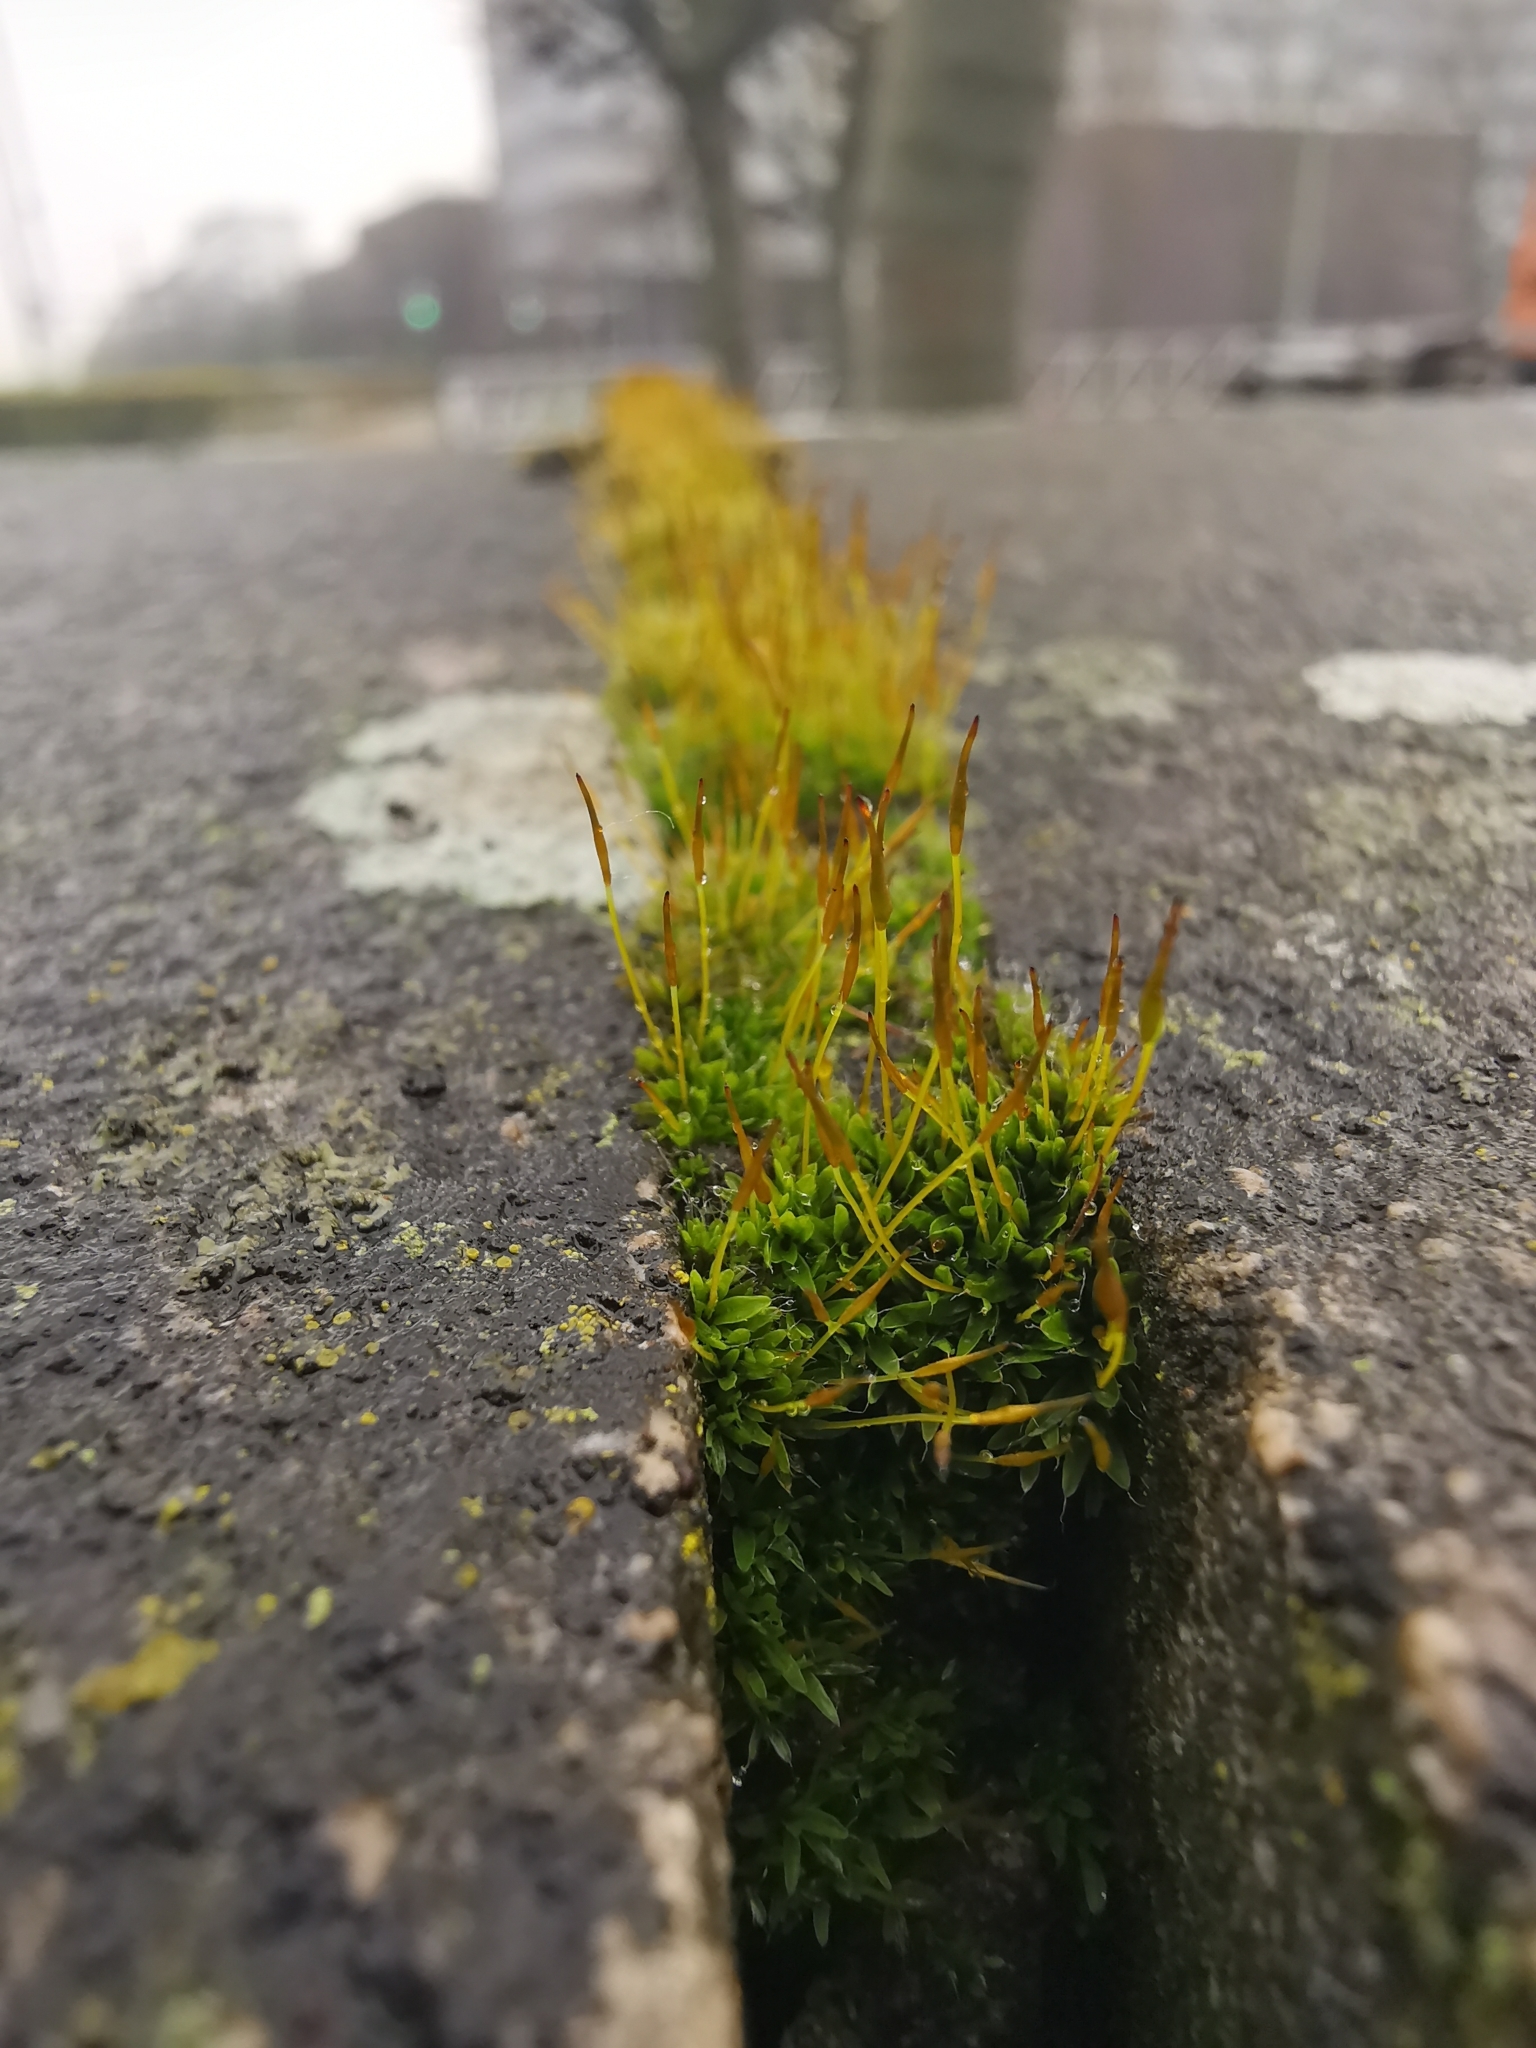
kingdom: Plantae
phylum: Bryophyta
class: Bryopsida
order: Pottiales
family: Pottiaceae
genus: Tortula
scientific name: Tortula muralis
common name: Wall screw-moss
